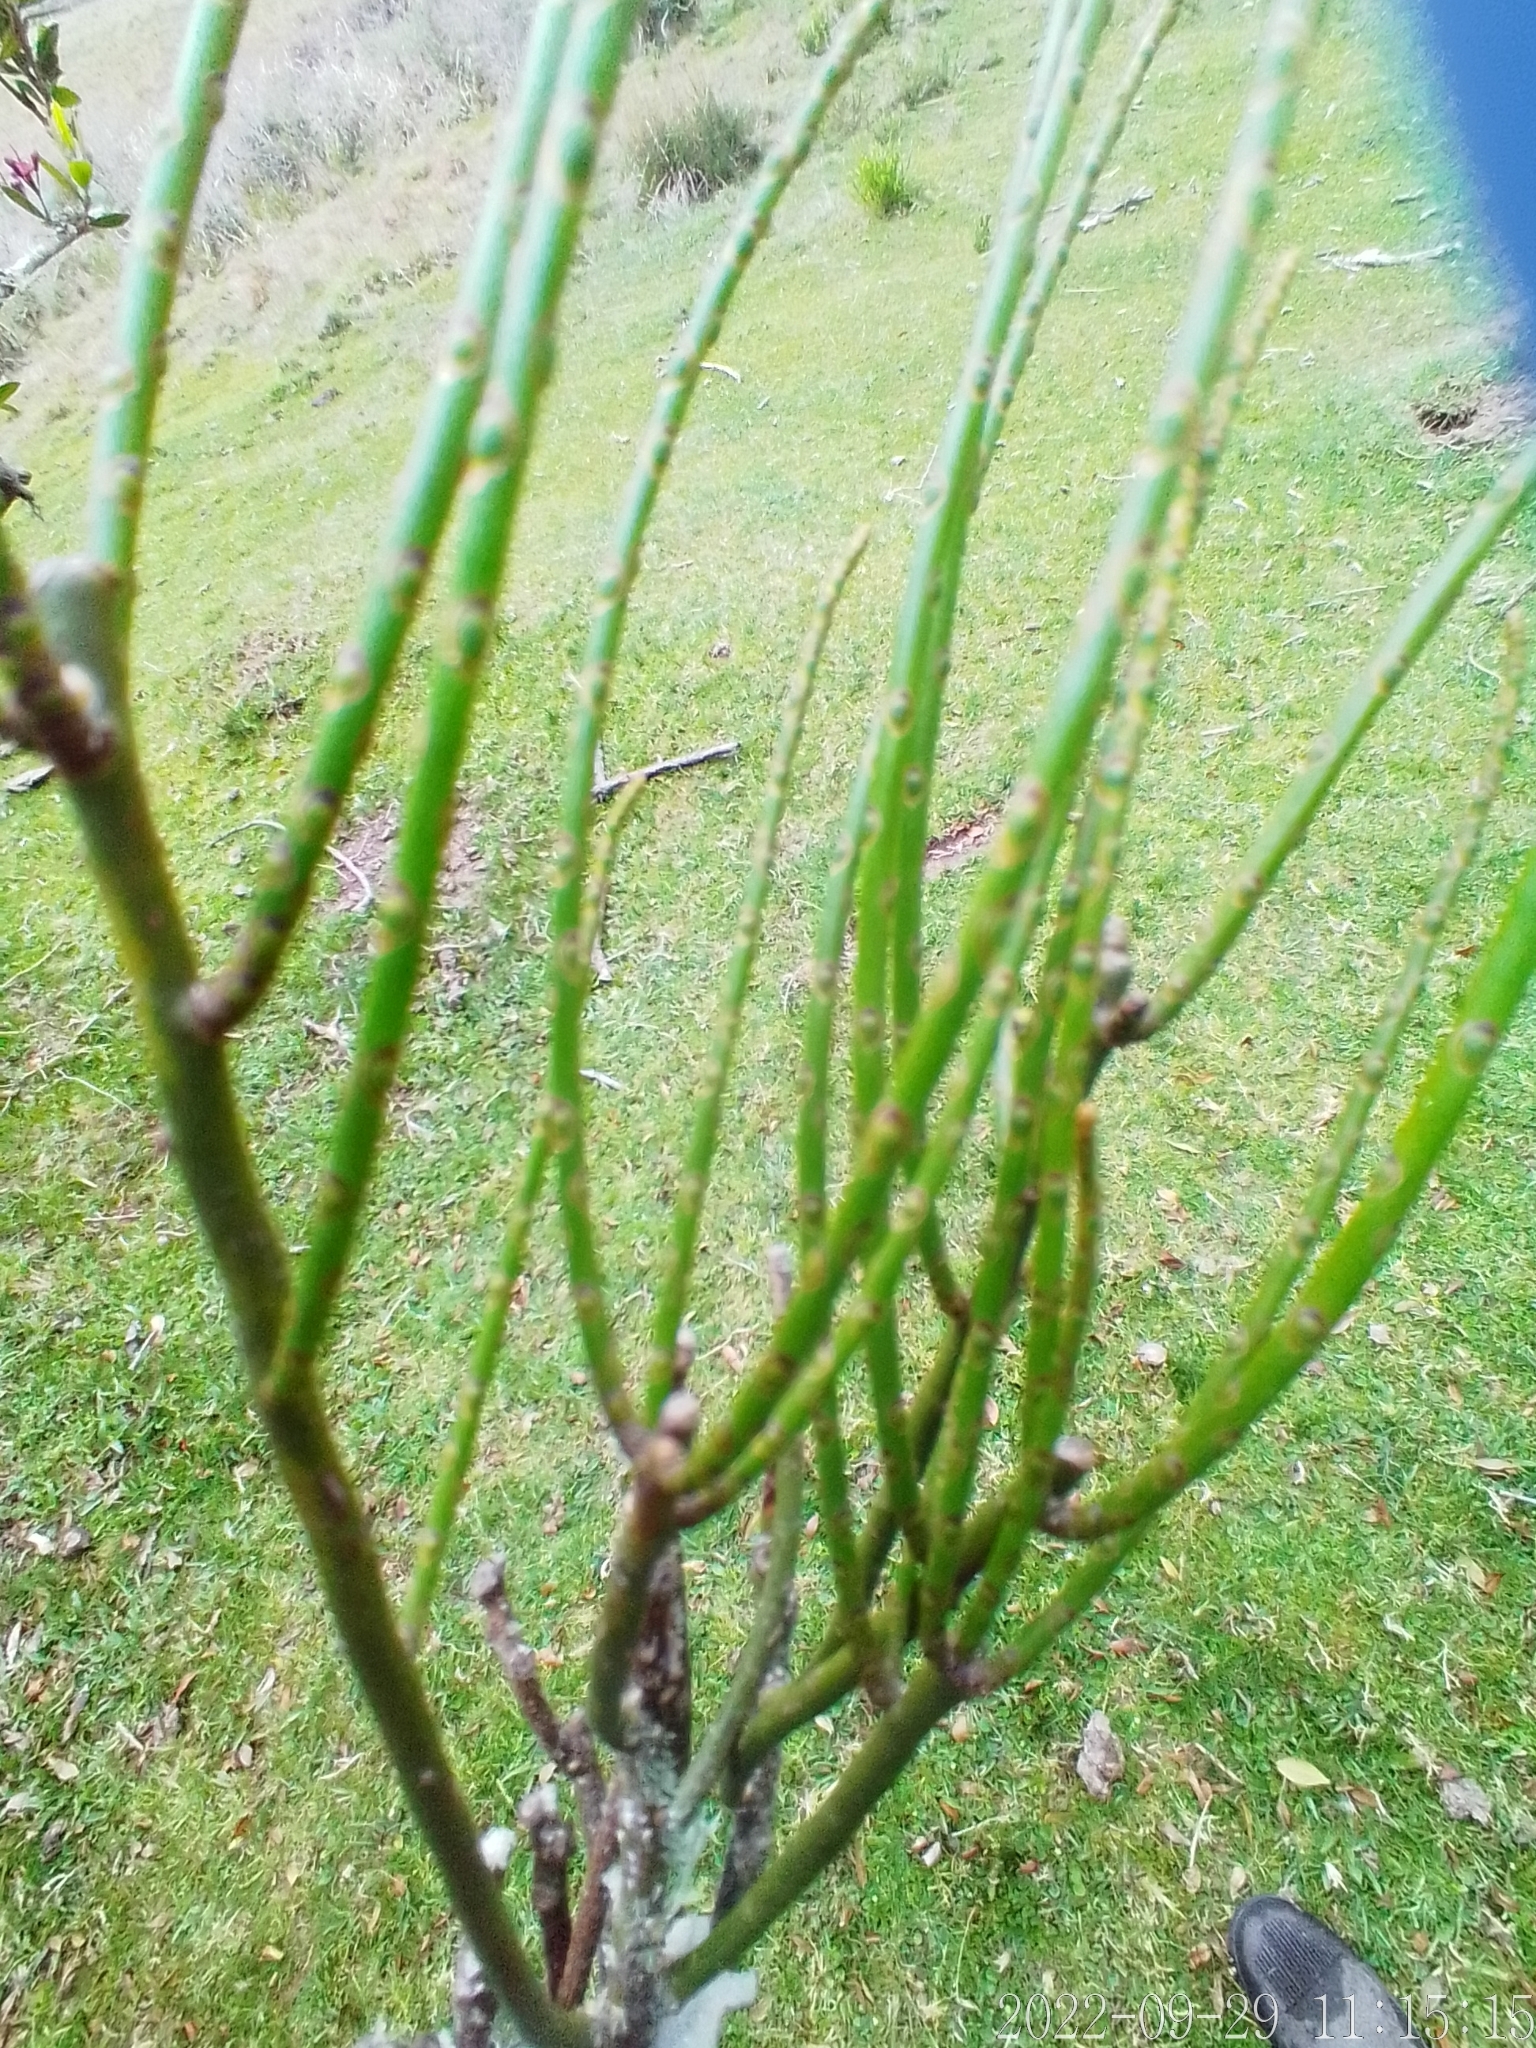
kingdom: Plantae
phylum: Tracheophyta
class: Magnoliopsida
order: Santalales
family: Santalaceae
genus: Eubrachion
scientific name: Eubrachion ambiguum
